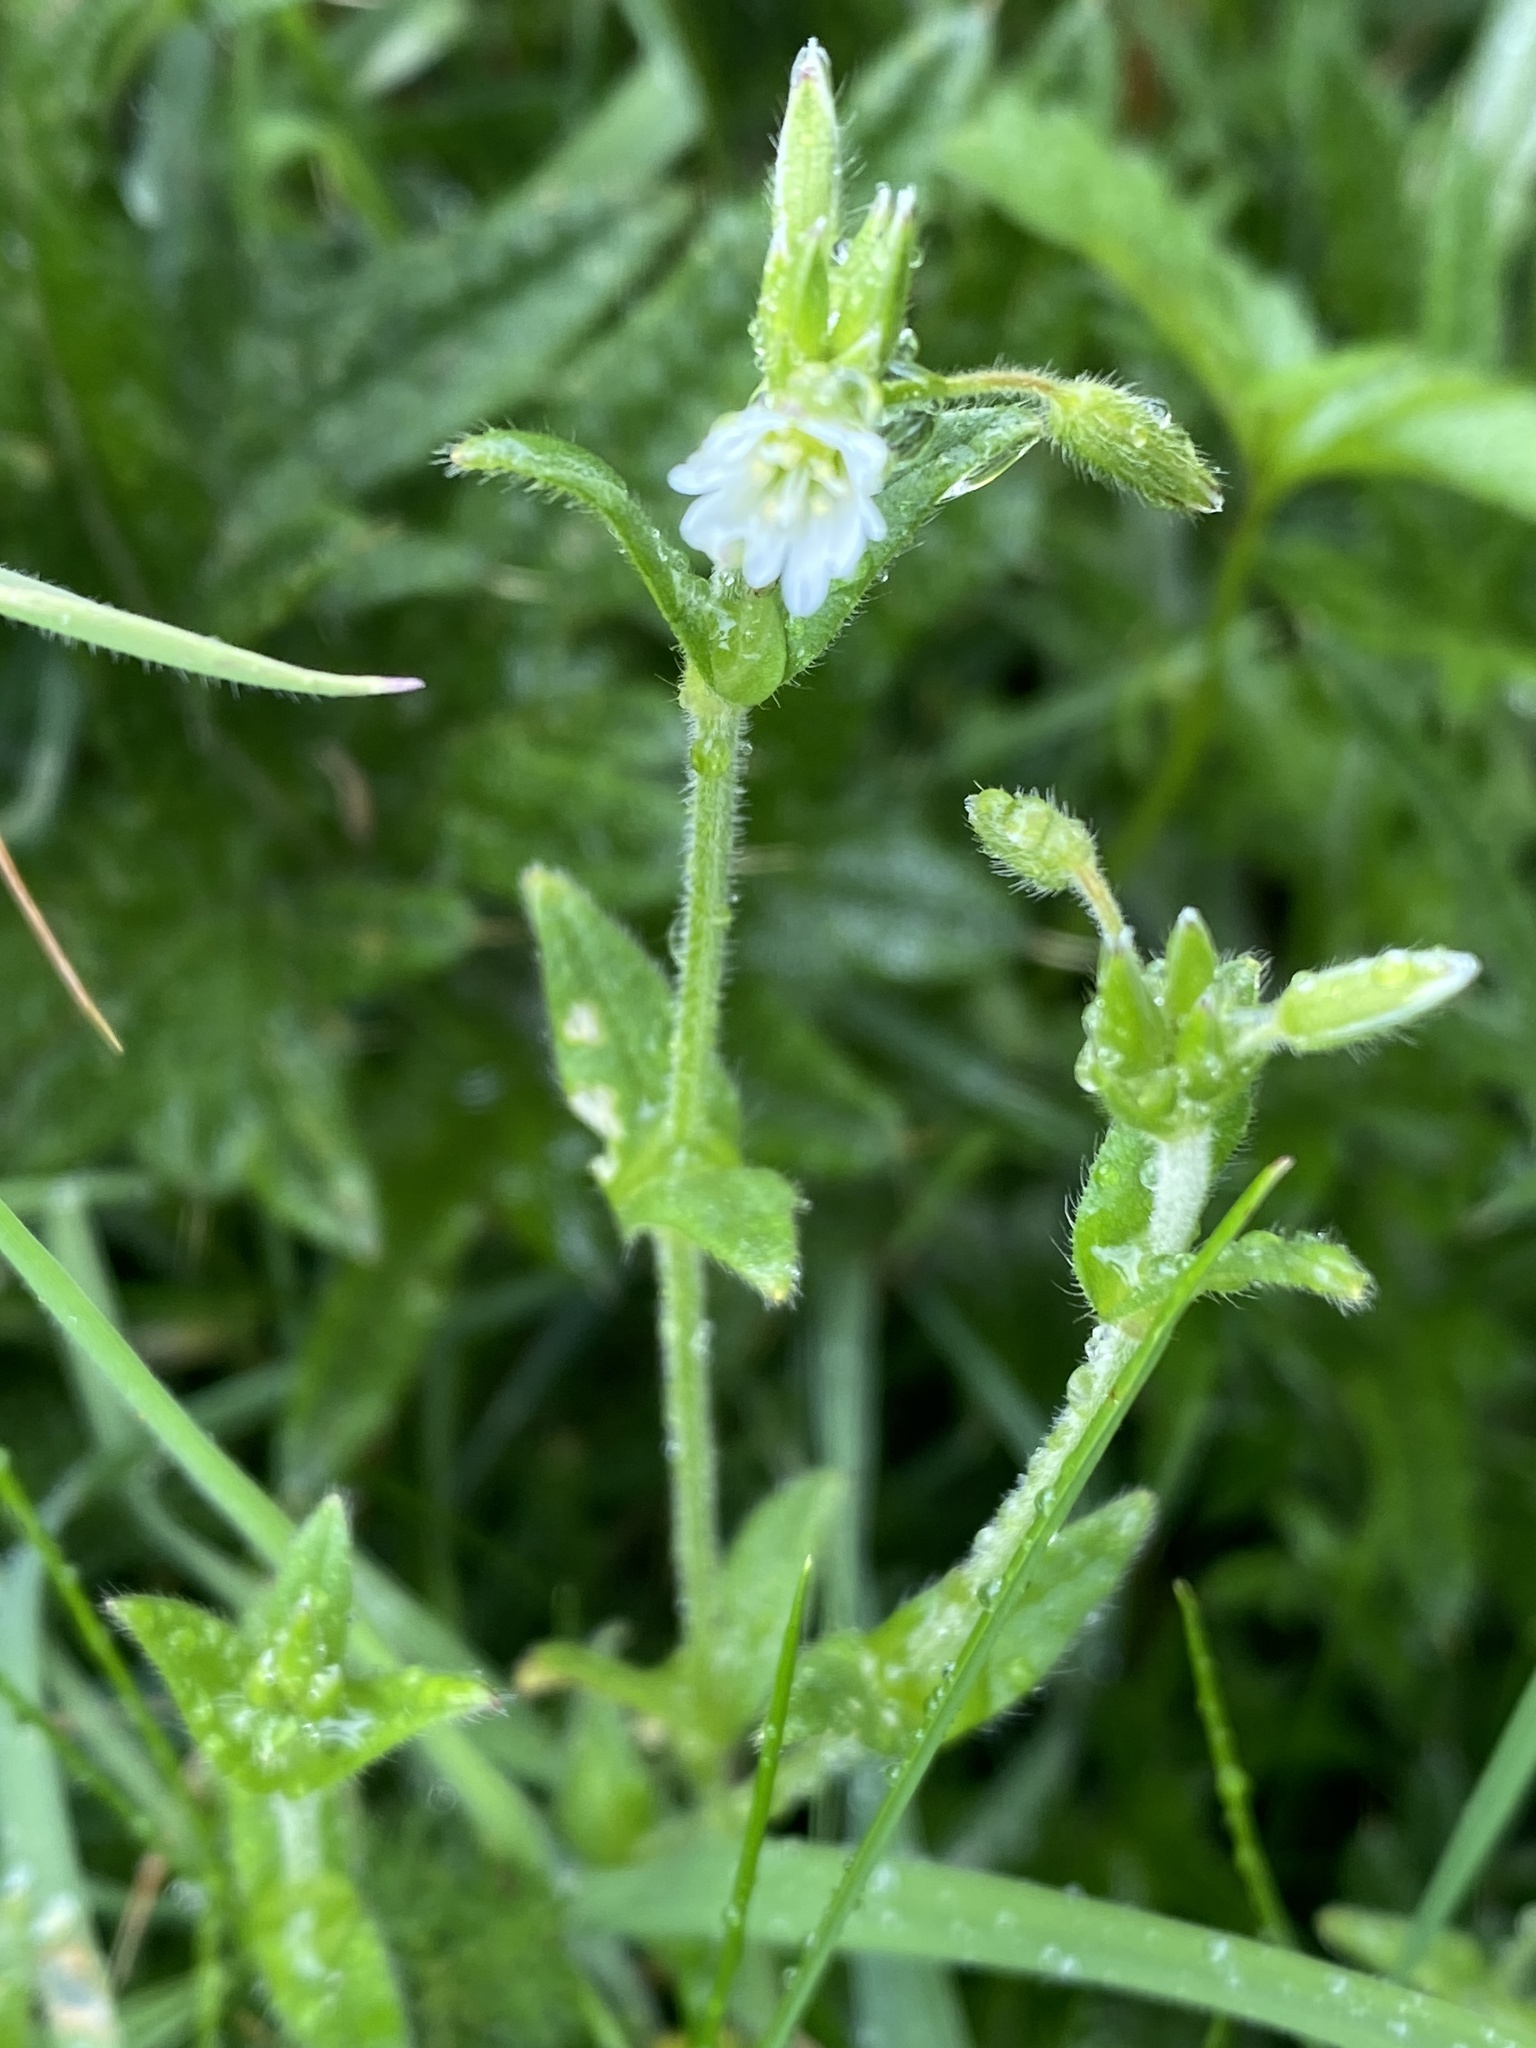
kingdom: Plantae
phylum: Tracheophyta
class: Magnoliopsida
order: Caryophyllales
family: Caryophyllaceae
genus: Cerastium
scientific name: Cerastium fontanum
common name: Common mouse-ear
